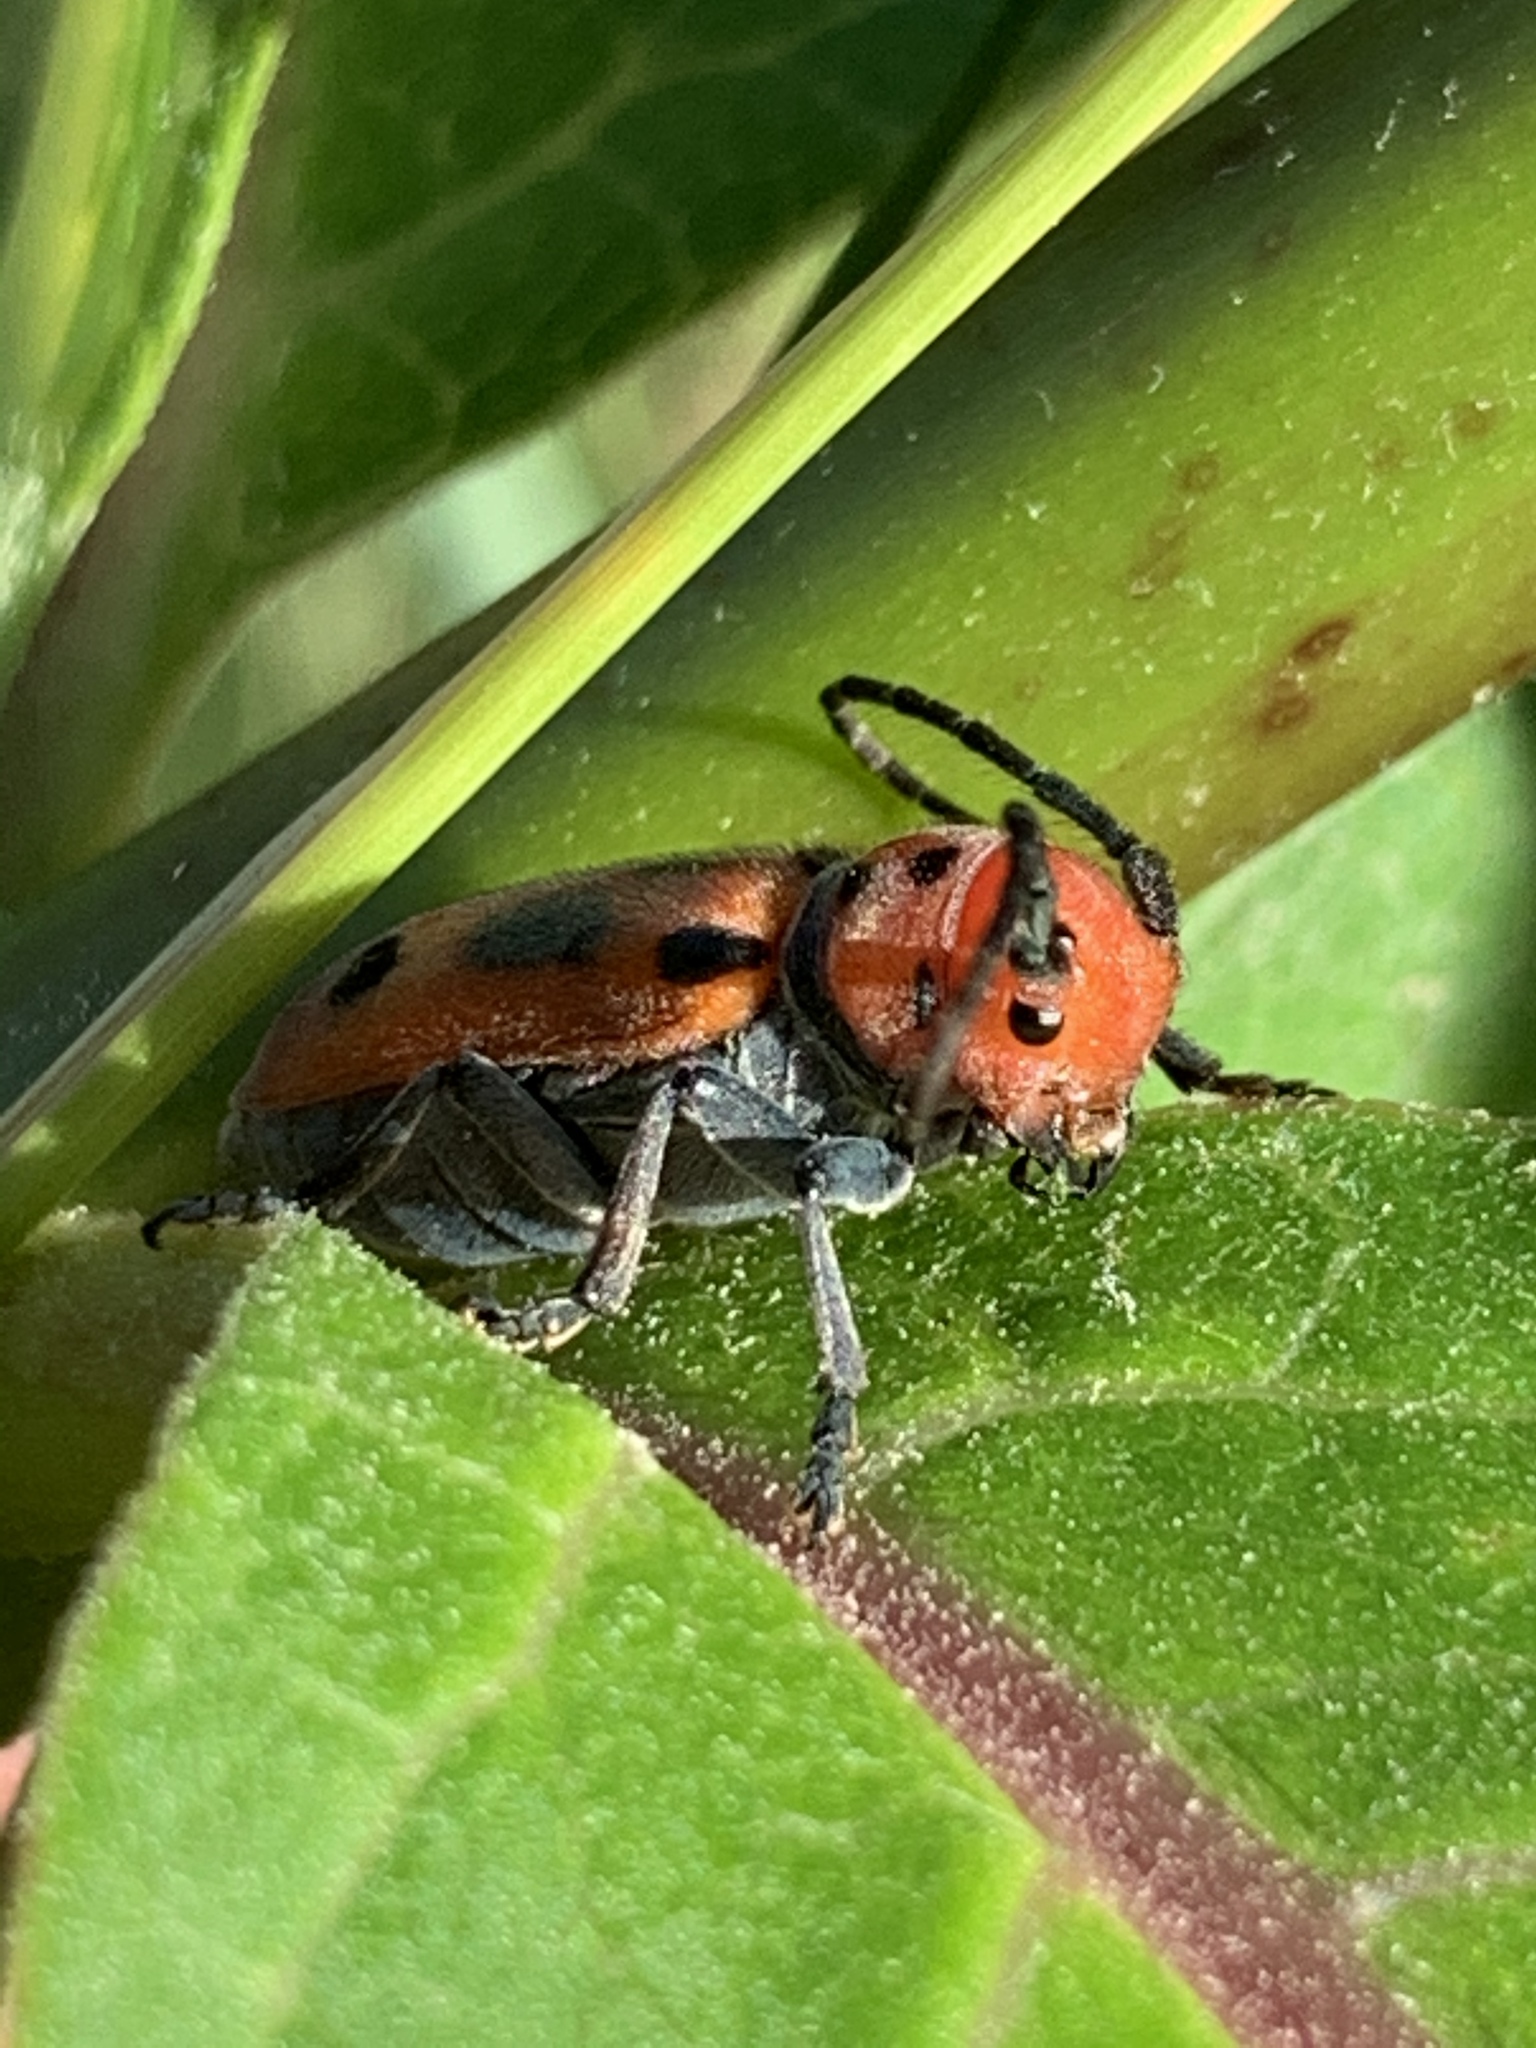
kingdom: Animalia
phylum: Arthropoda
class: Insecta
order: Coleoptera
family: Cerambycidae
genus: Tetraopes
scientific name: Tetraopes tetrophthalmus
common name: Red milkweed beetle
